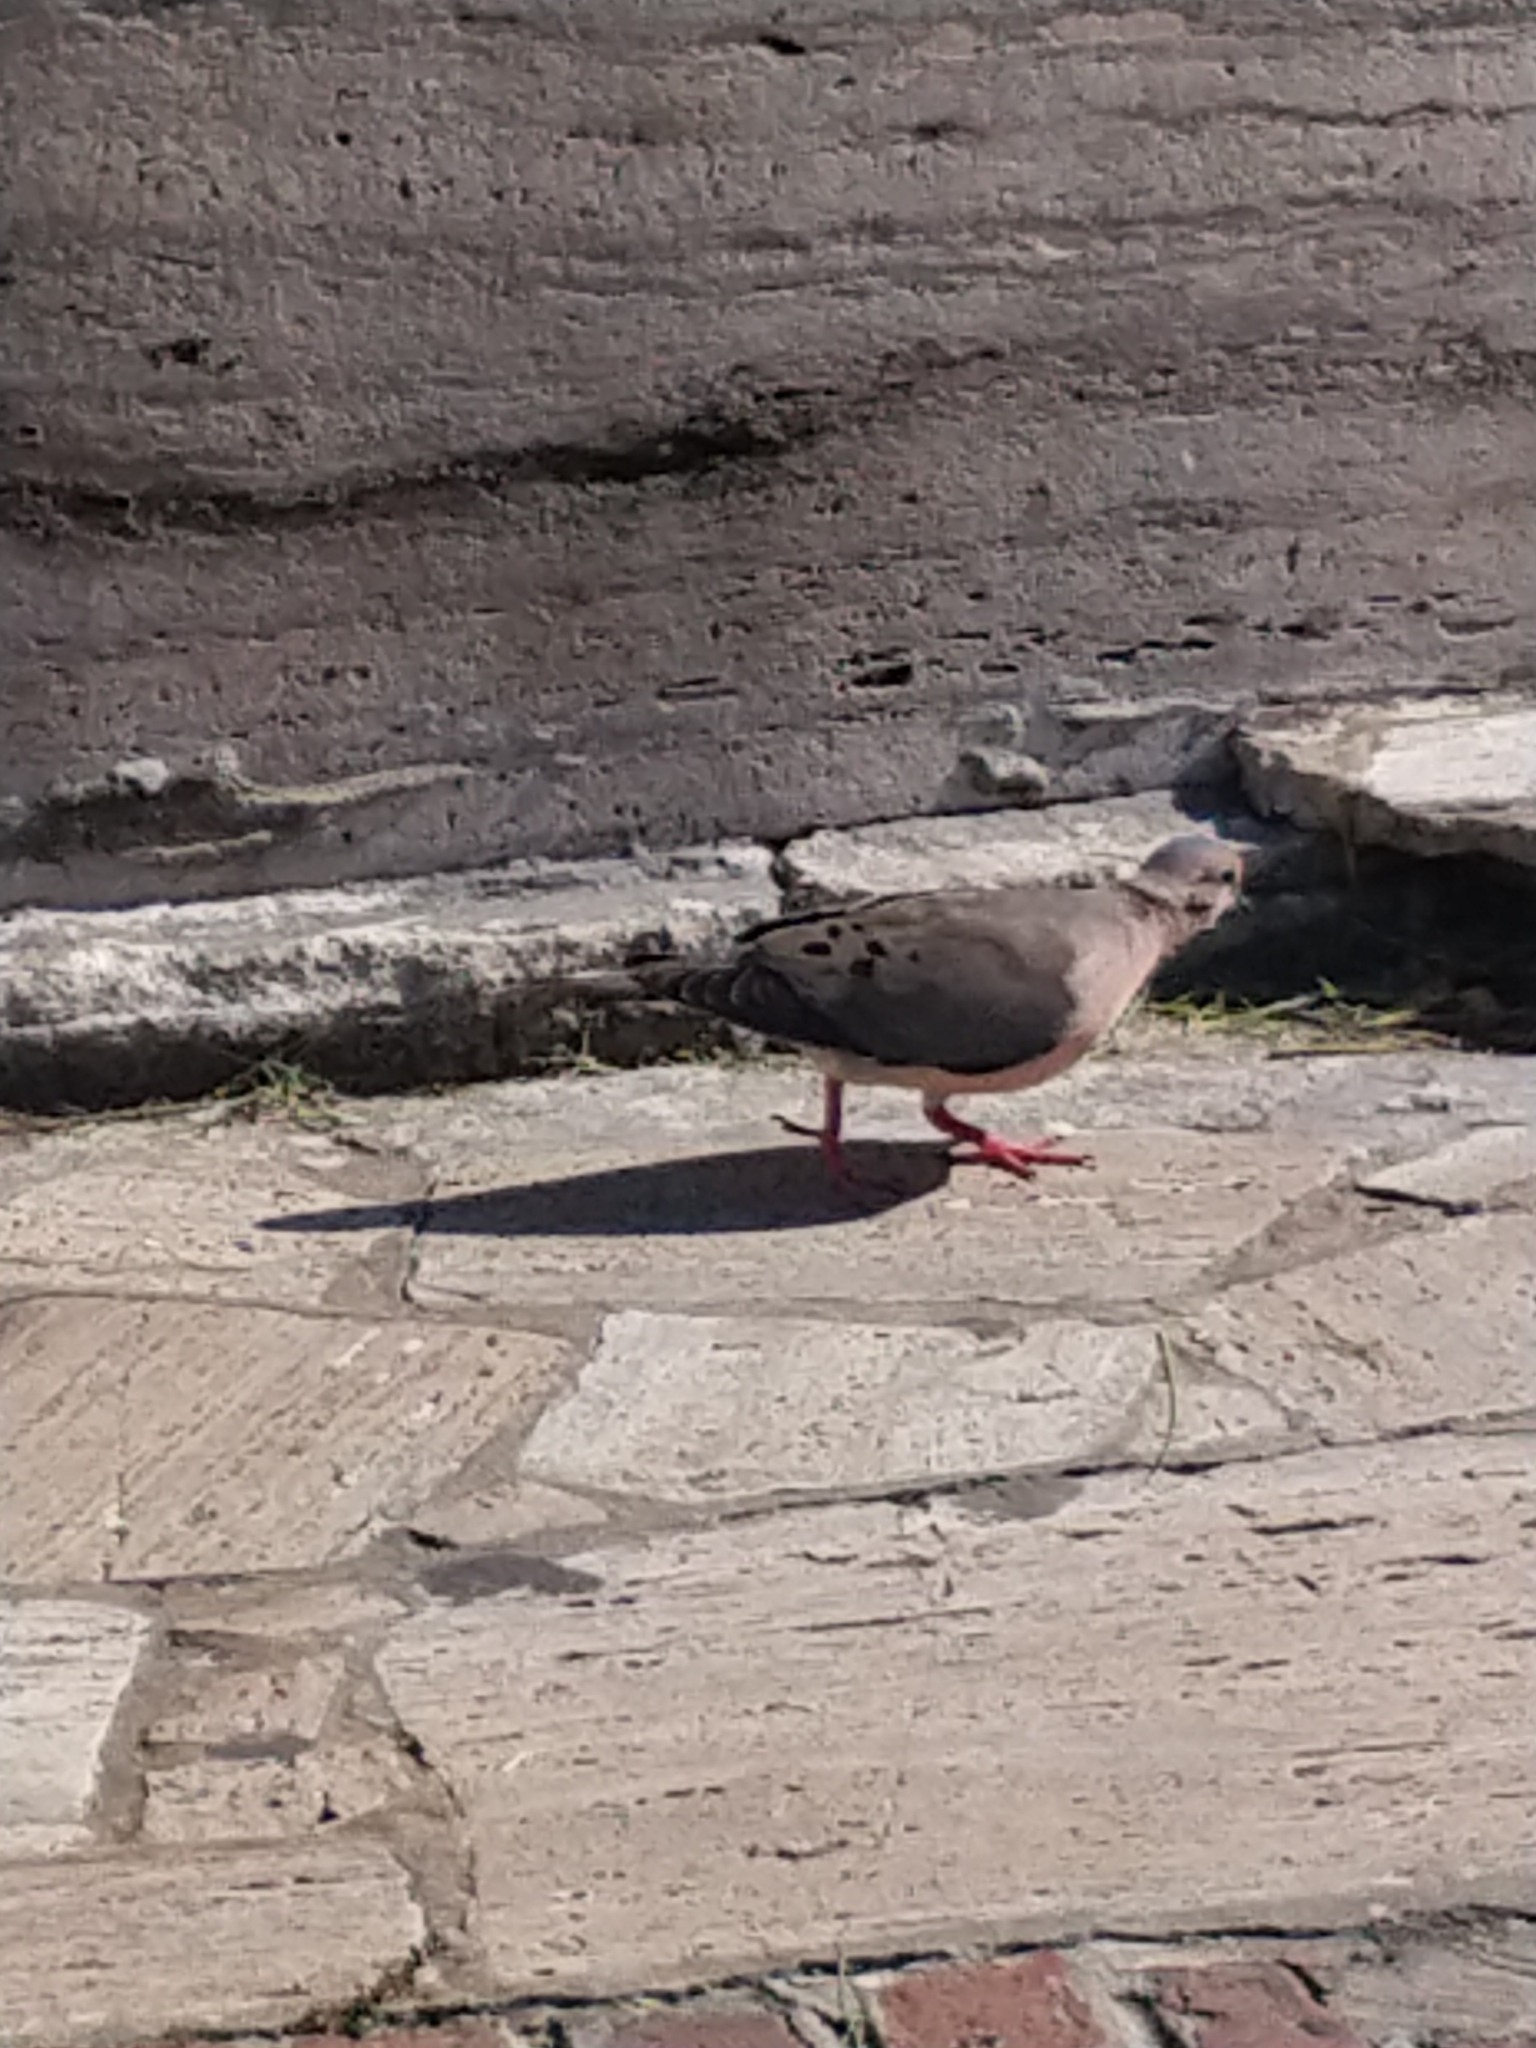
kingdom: Animalia
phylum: Chordata
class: Aves
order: Columbiformes
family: Columbidae
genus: Zenaida
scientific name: Zenaida auriculata
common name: Eared dove
